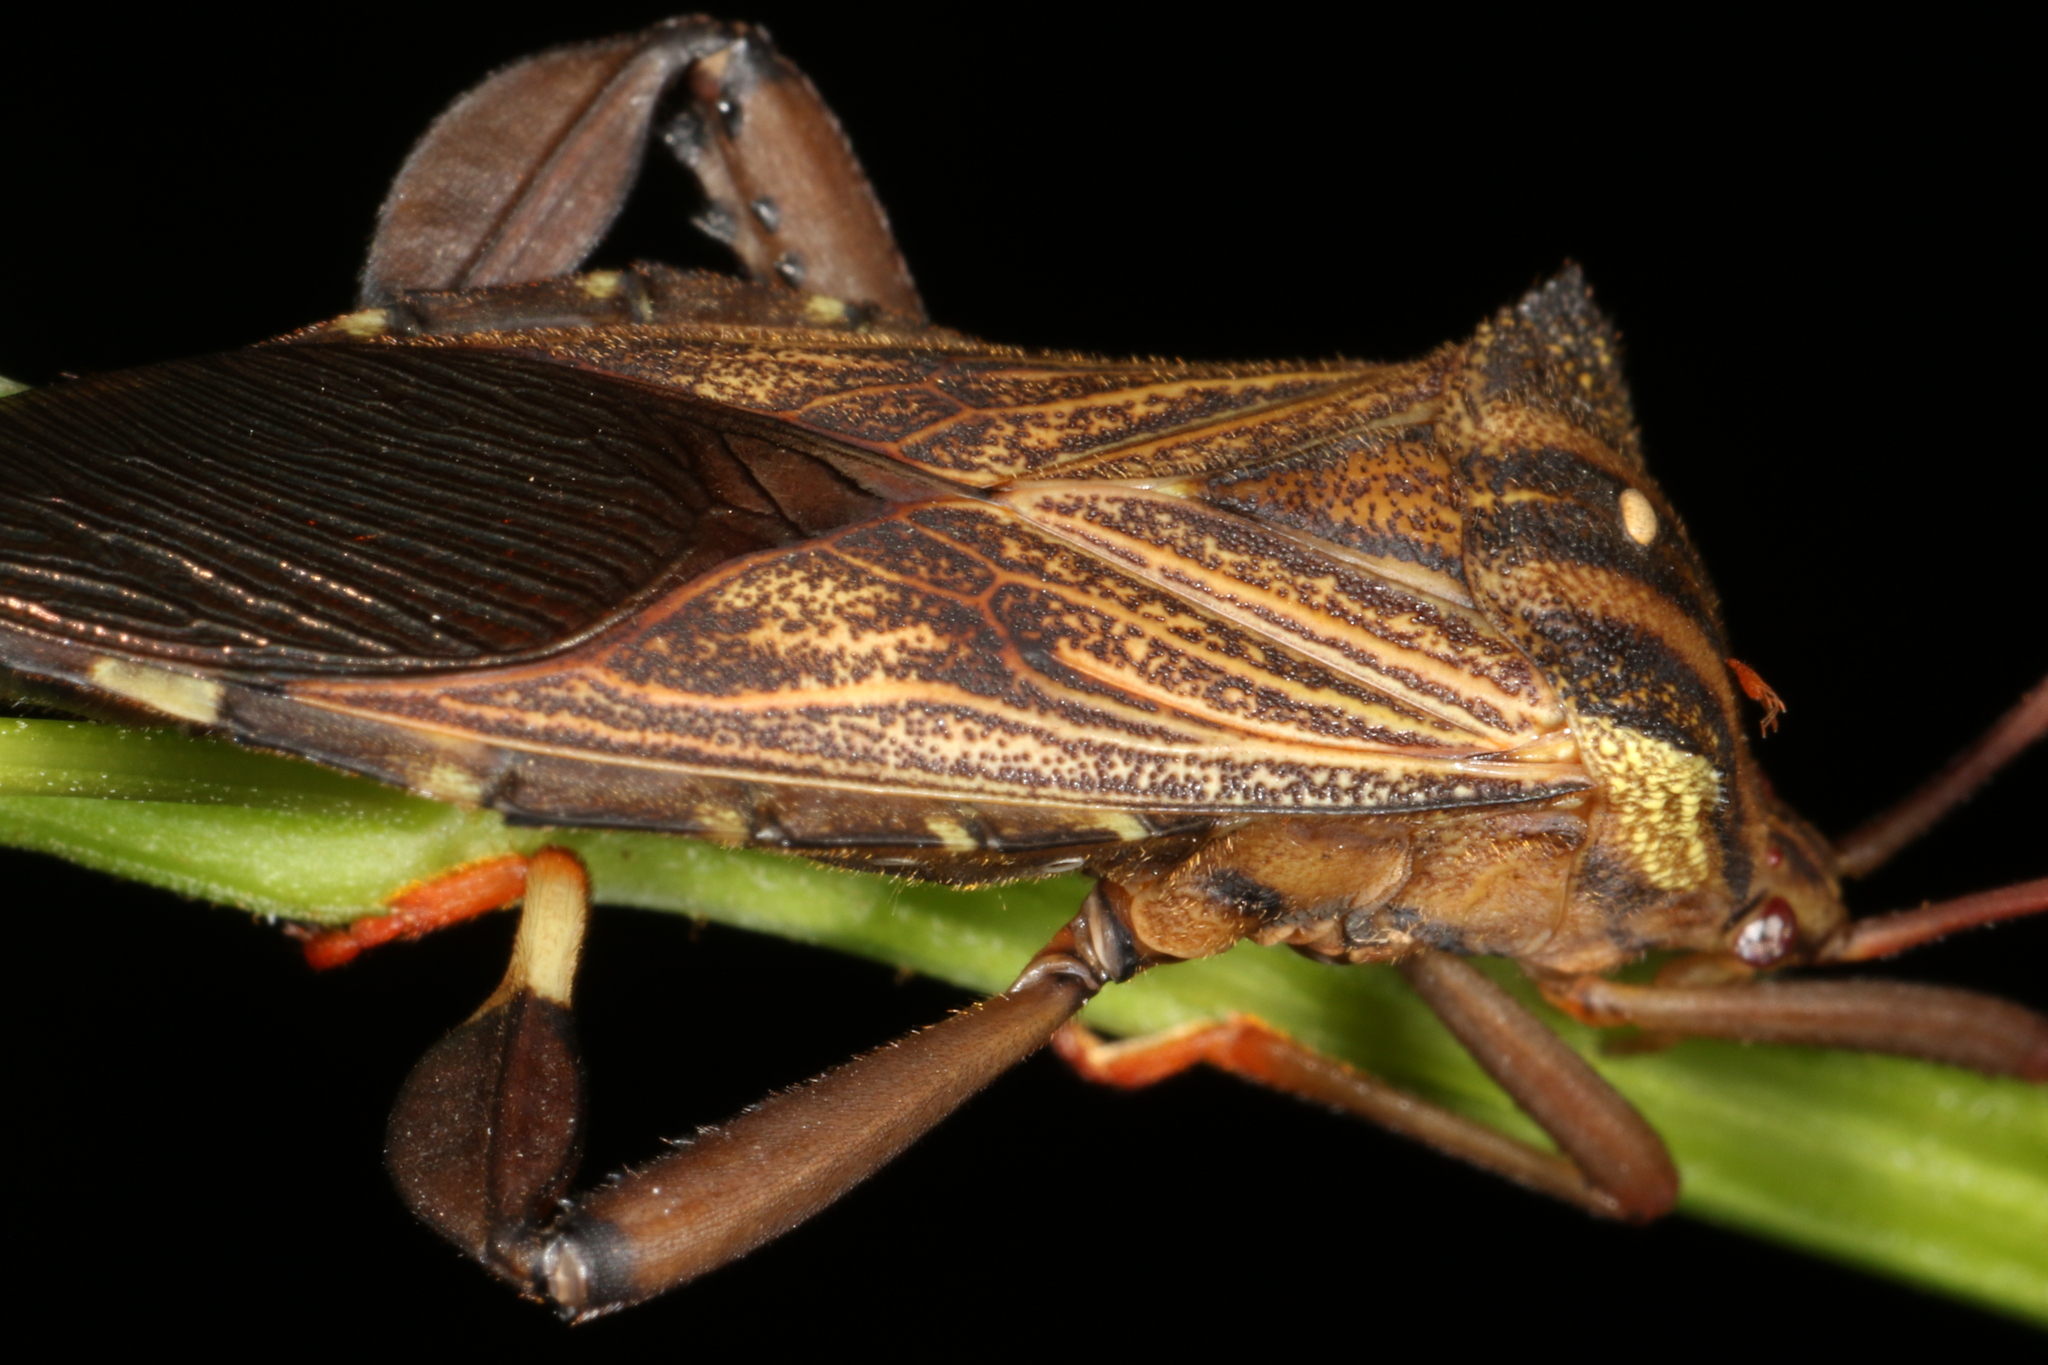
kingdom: Animalia
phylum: Arthropoda
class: Insecta
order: Hemiptera
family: Coreidae
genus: Melucha
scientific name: Melucha phyllocnemis
